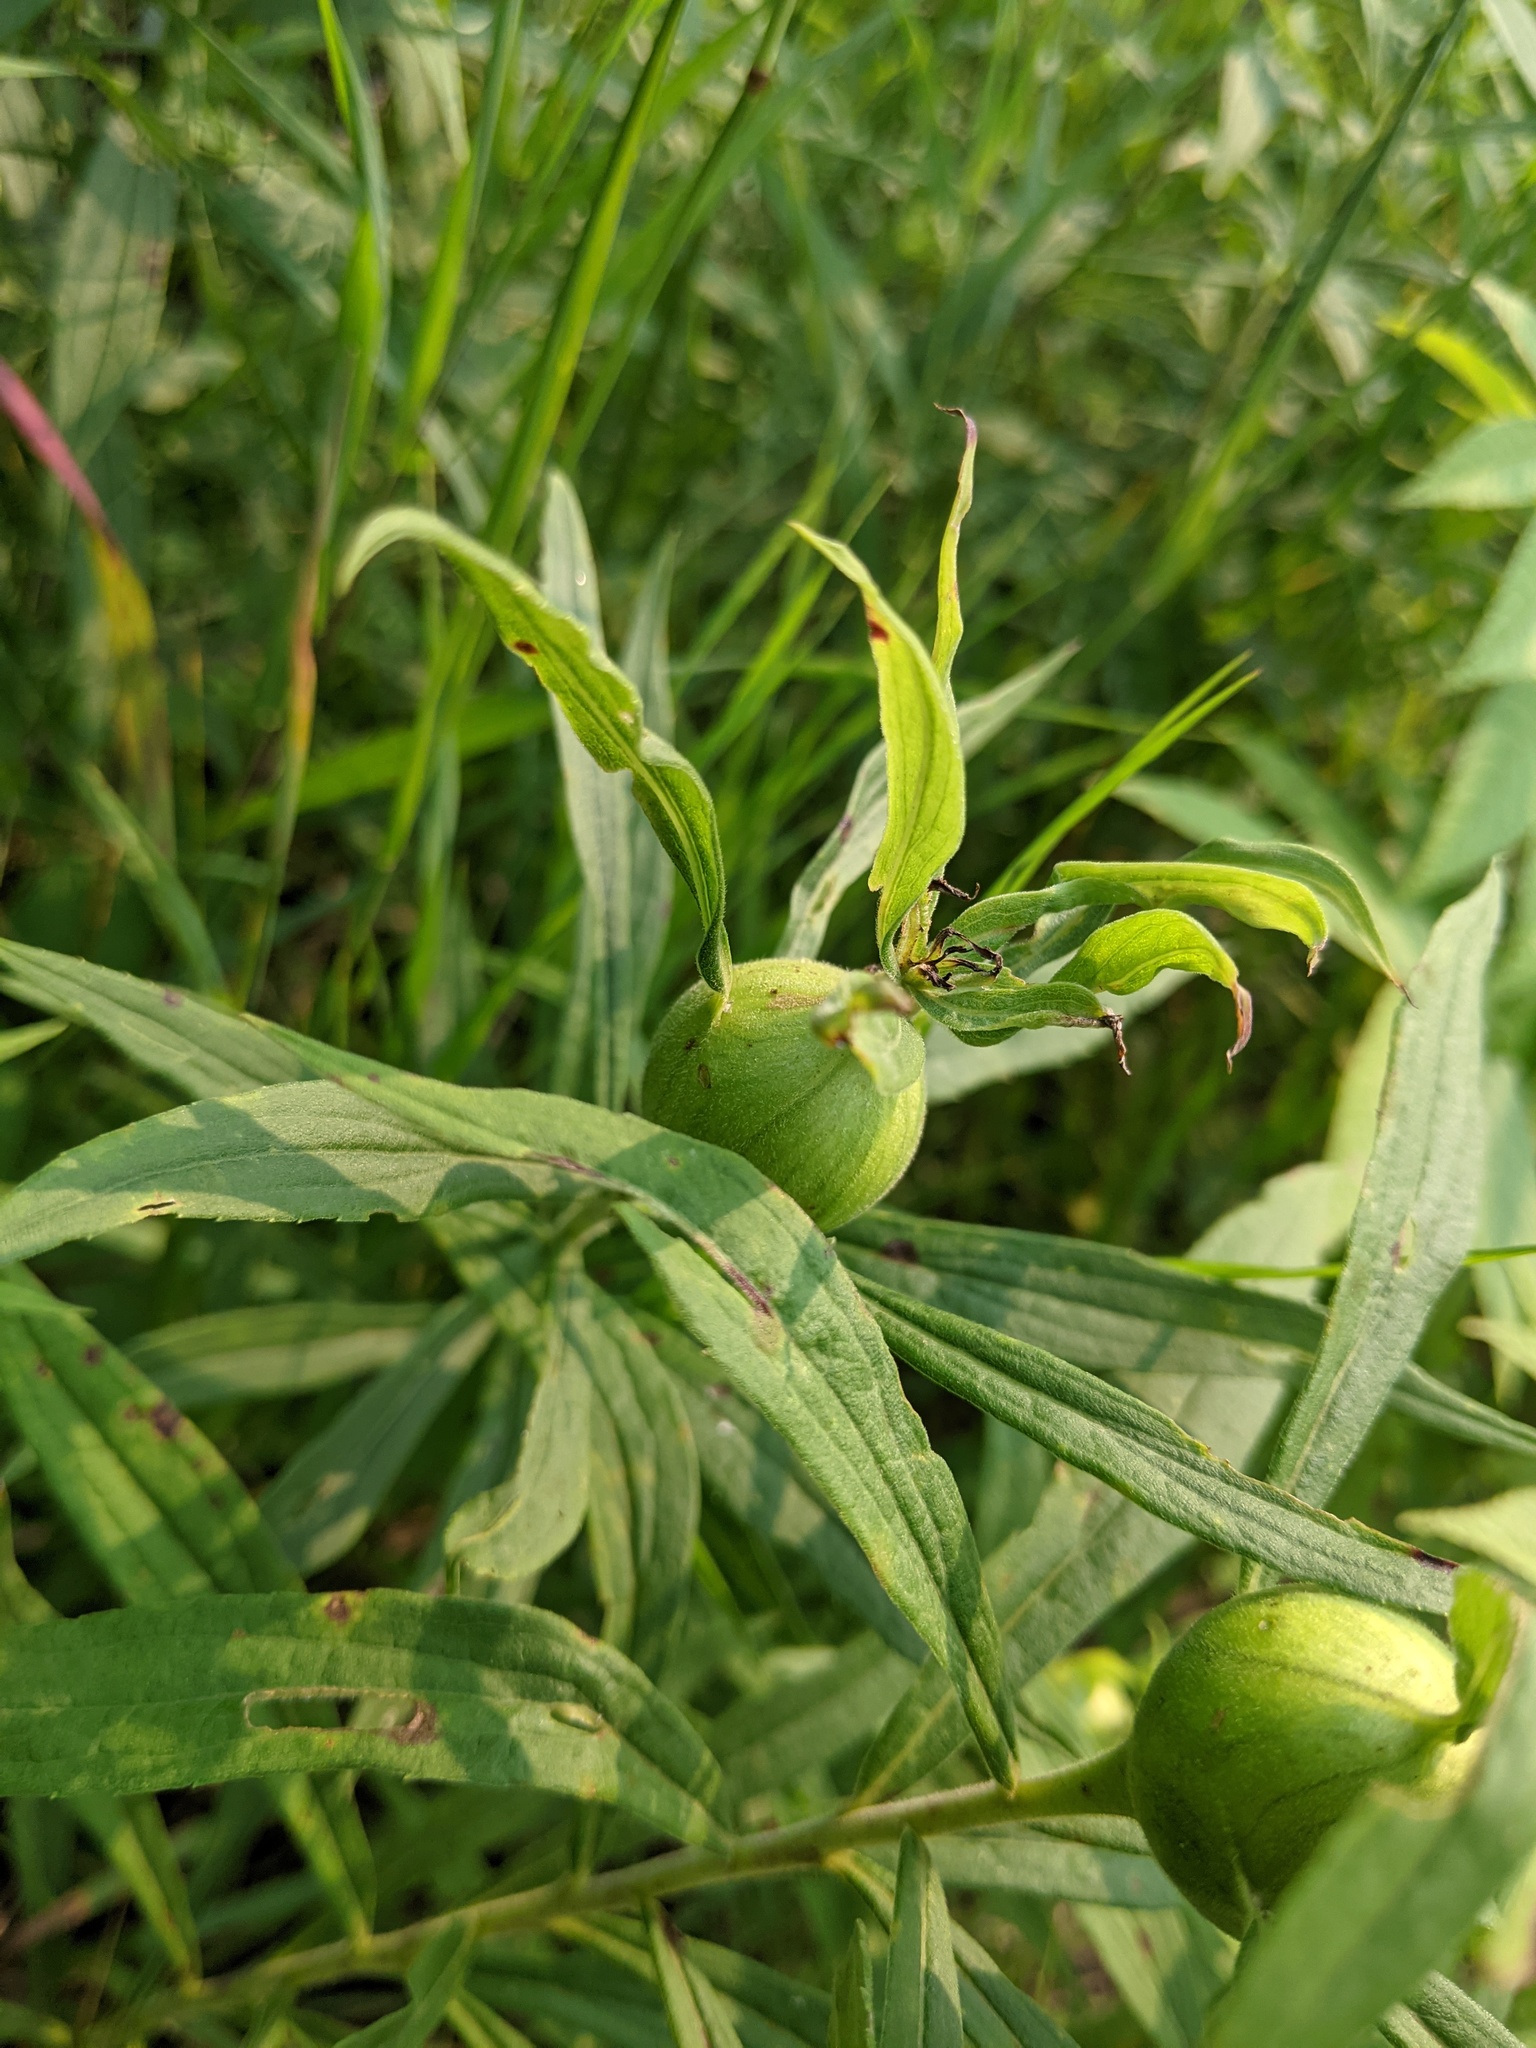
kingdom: Animalia
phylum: Arthropoda
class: Insecta
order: Diptera
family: Tephritidae
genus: Eurosta
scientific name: Eurosta solidaginis
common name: Goldenrod gall fly
